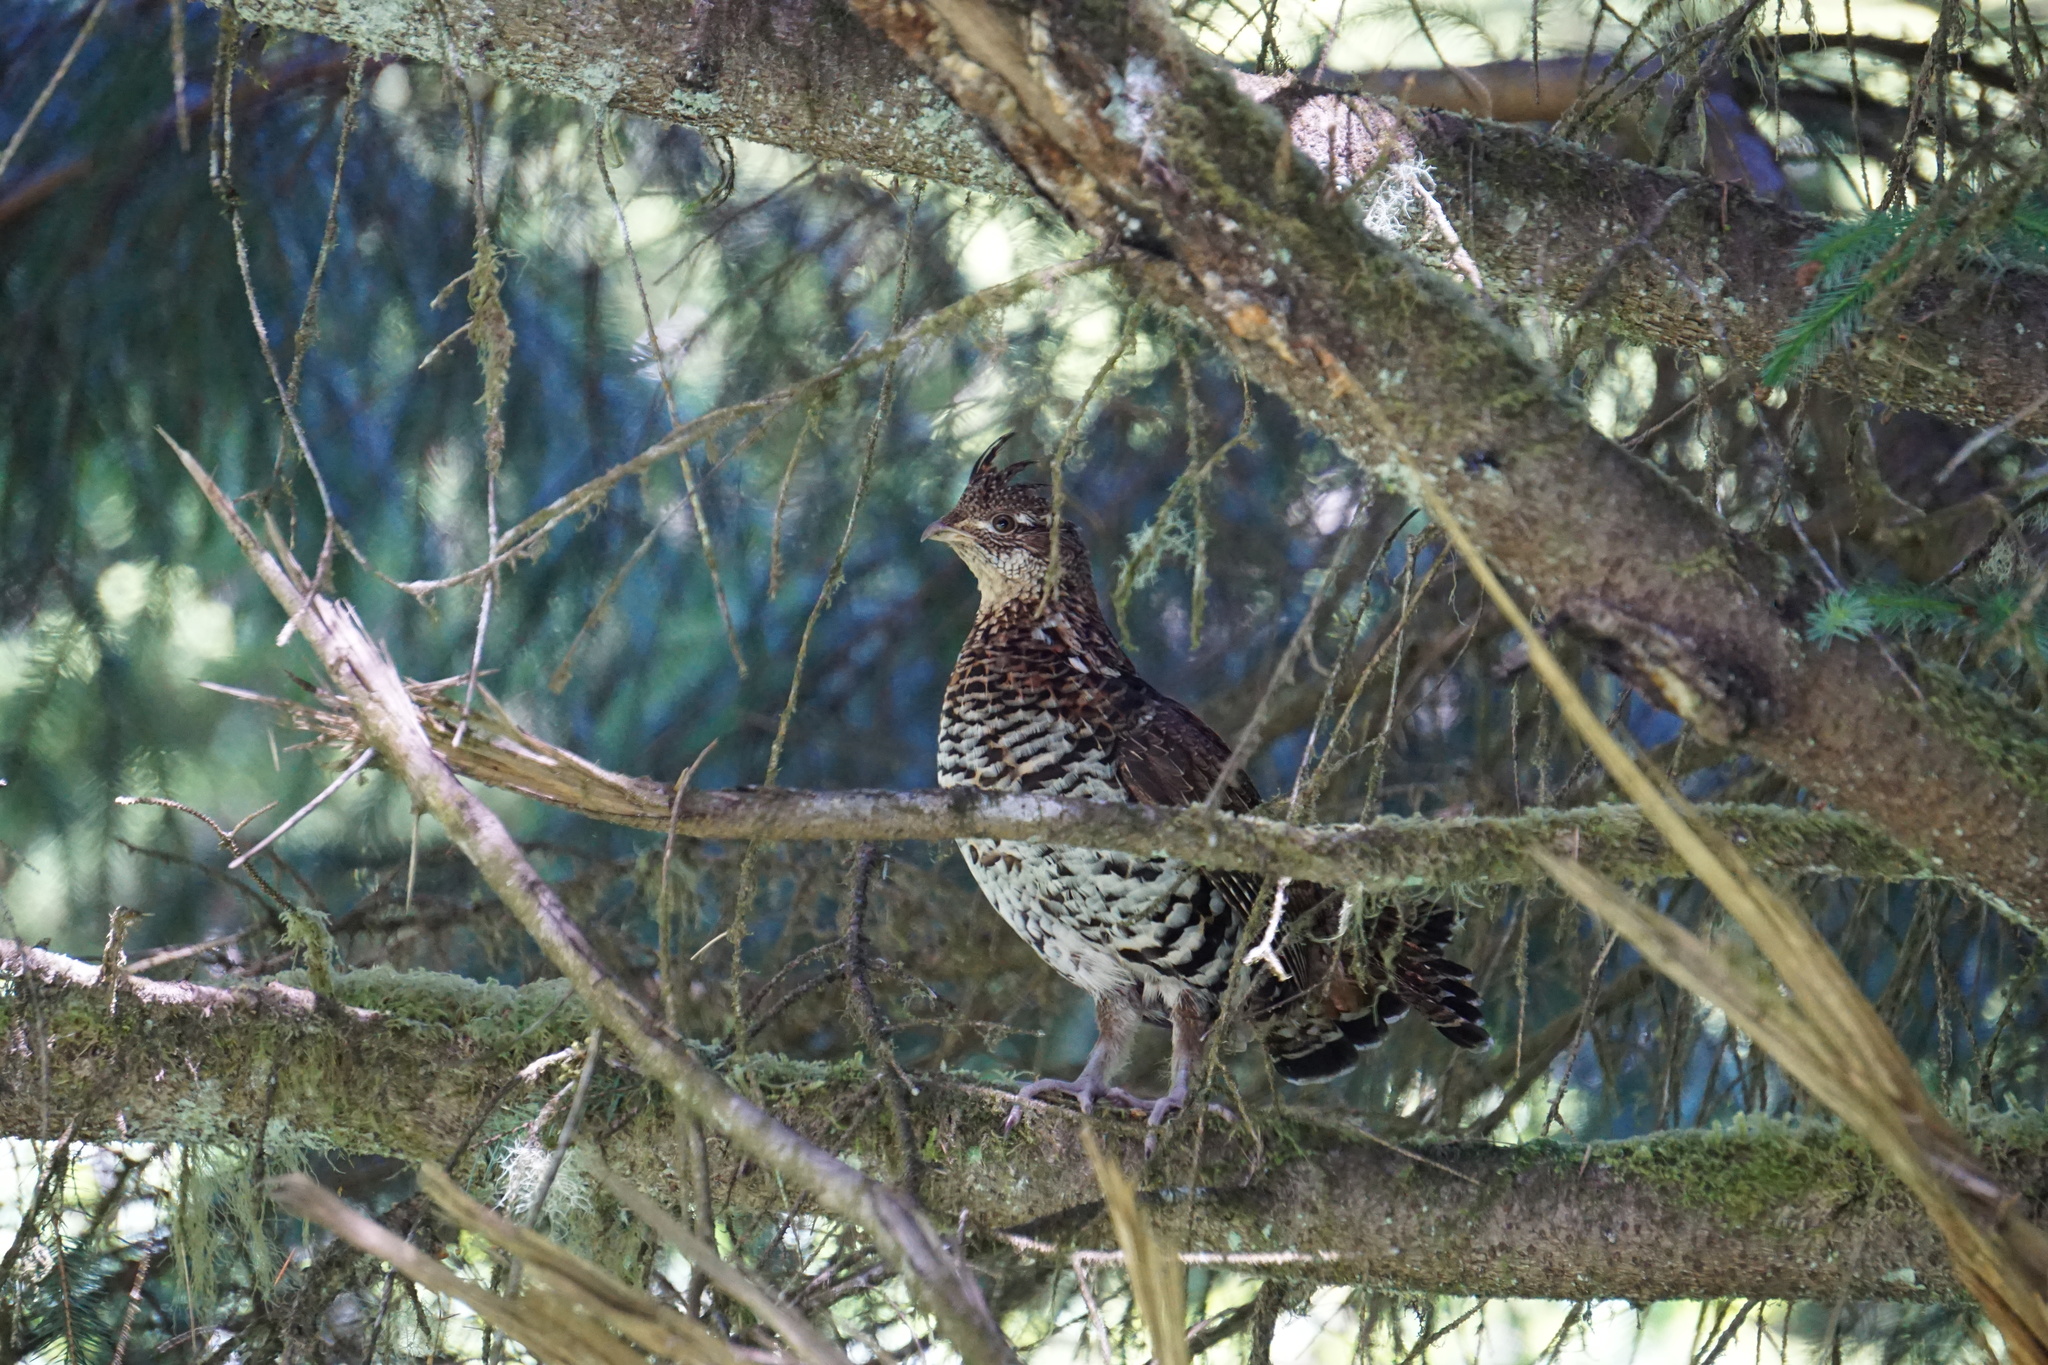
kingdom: Animalia
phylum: Chordata
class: Aves
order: Galliformes
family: Phasianidae
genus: Bonasa
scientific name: Bonasa umbellus
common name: Ruffed grouse
